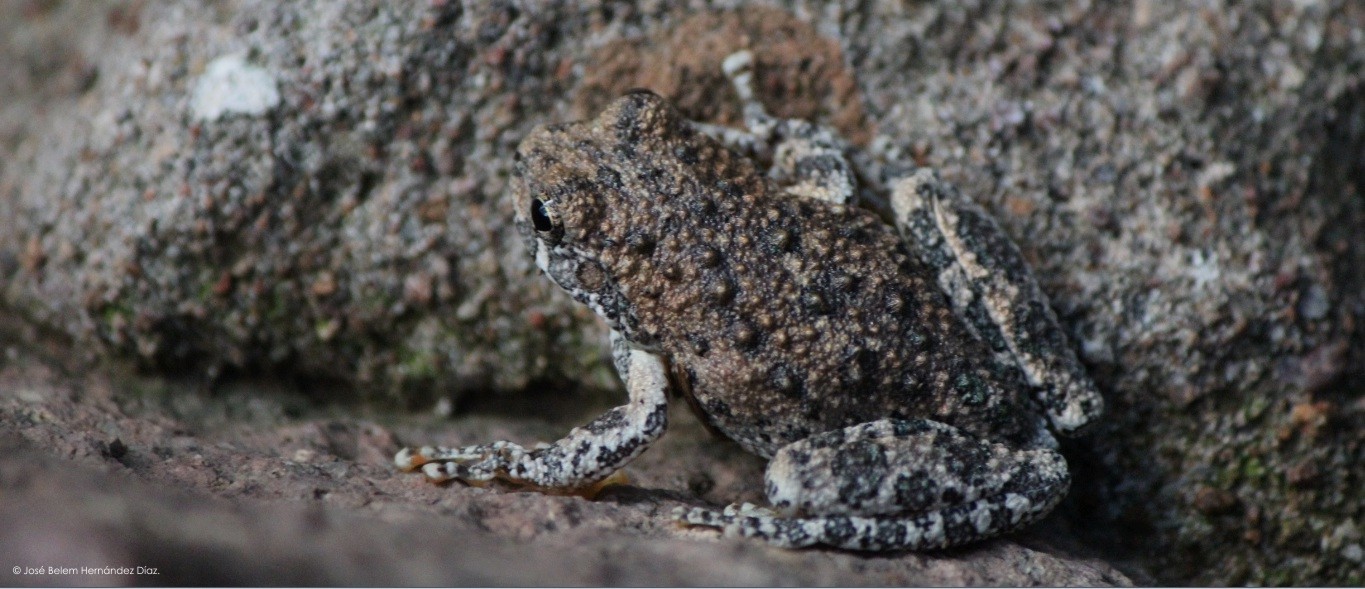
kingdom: Animalia
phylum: Chordata
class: Amphibia
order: Anura
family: Hylidae
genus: Dryophytes
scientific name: Dryophytes arenicolor
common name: Canyon treefrog
